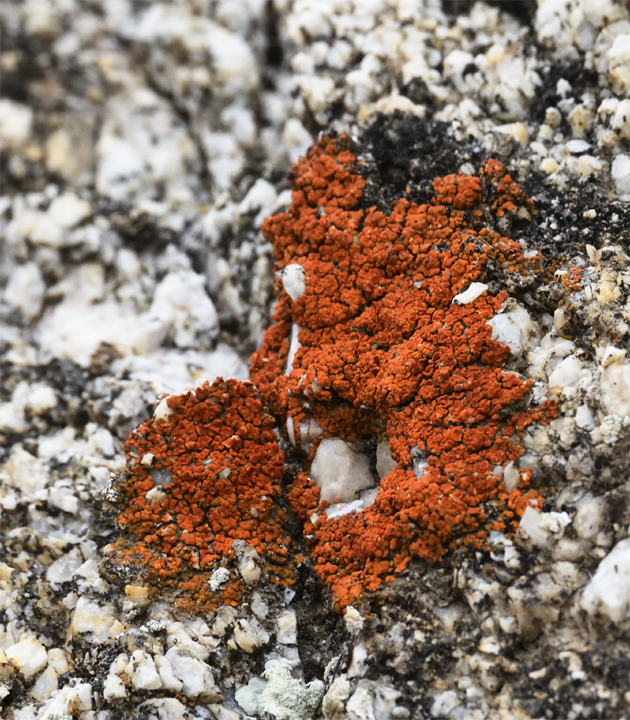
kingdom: Fungi
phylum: Ascomycota
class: Lecanoromycetes
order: Teloschistales
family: Teloschistaceae
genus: Xanthoria
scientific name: Xanthoria elegans
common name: Elegant sunburst lichen
